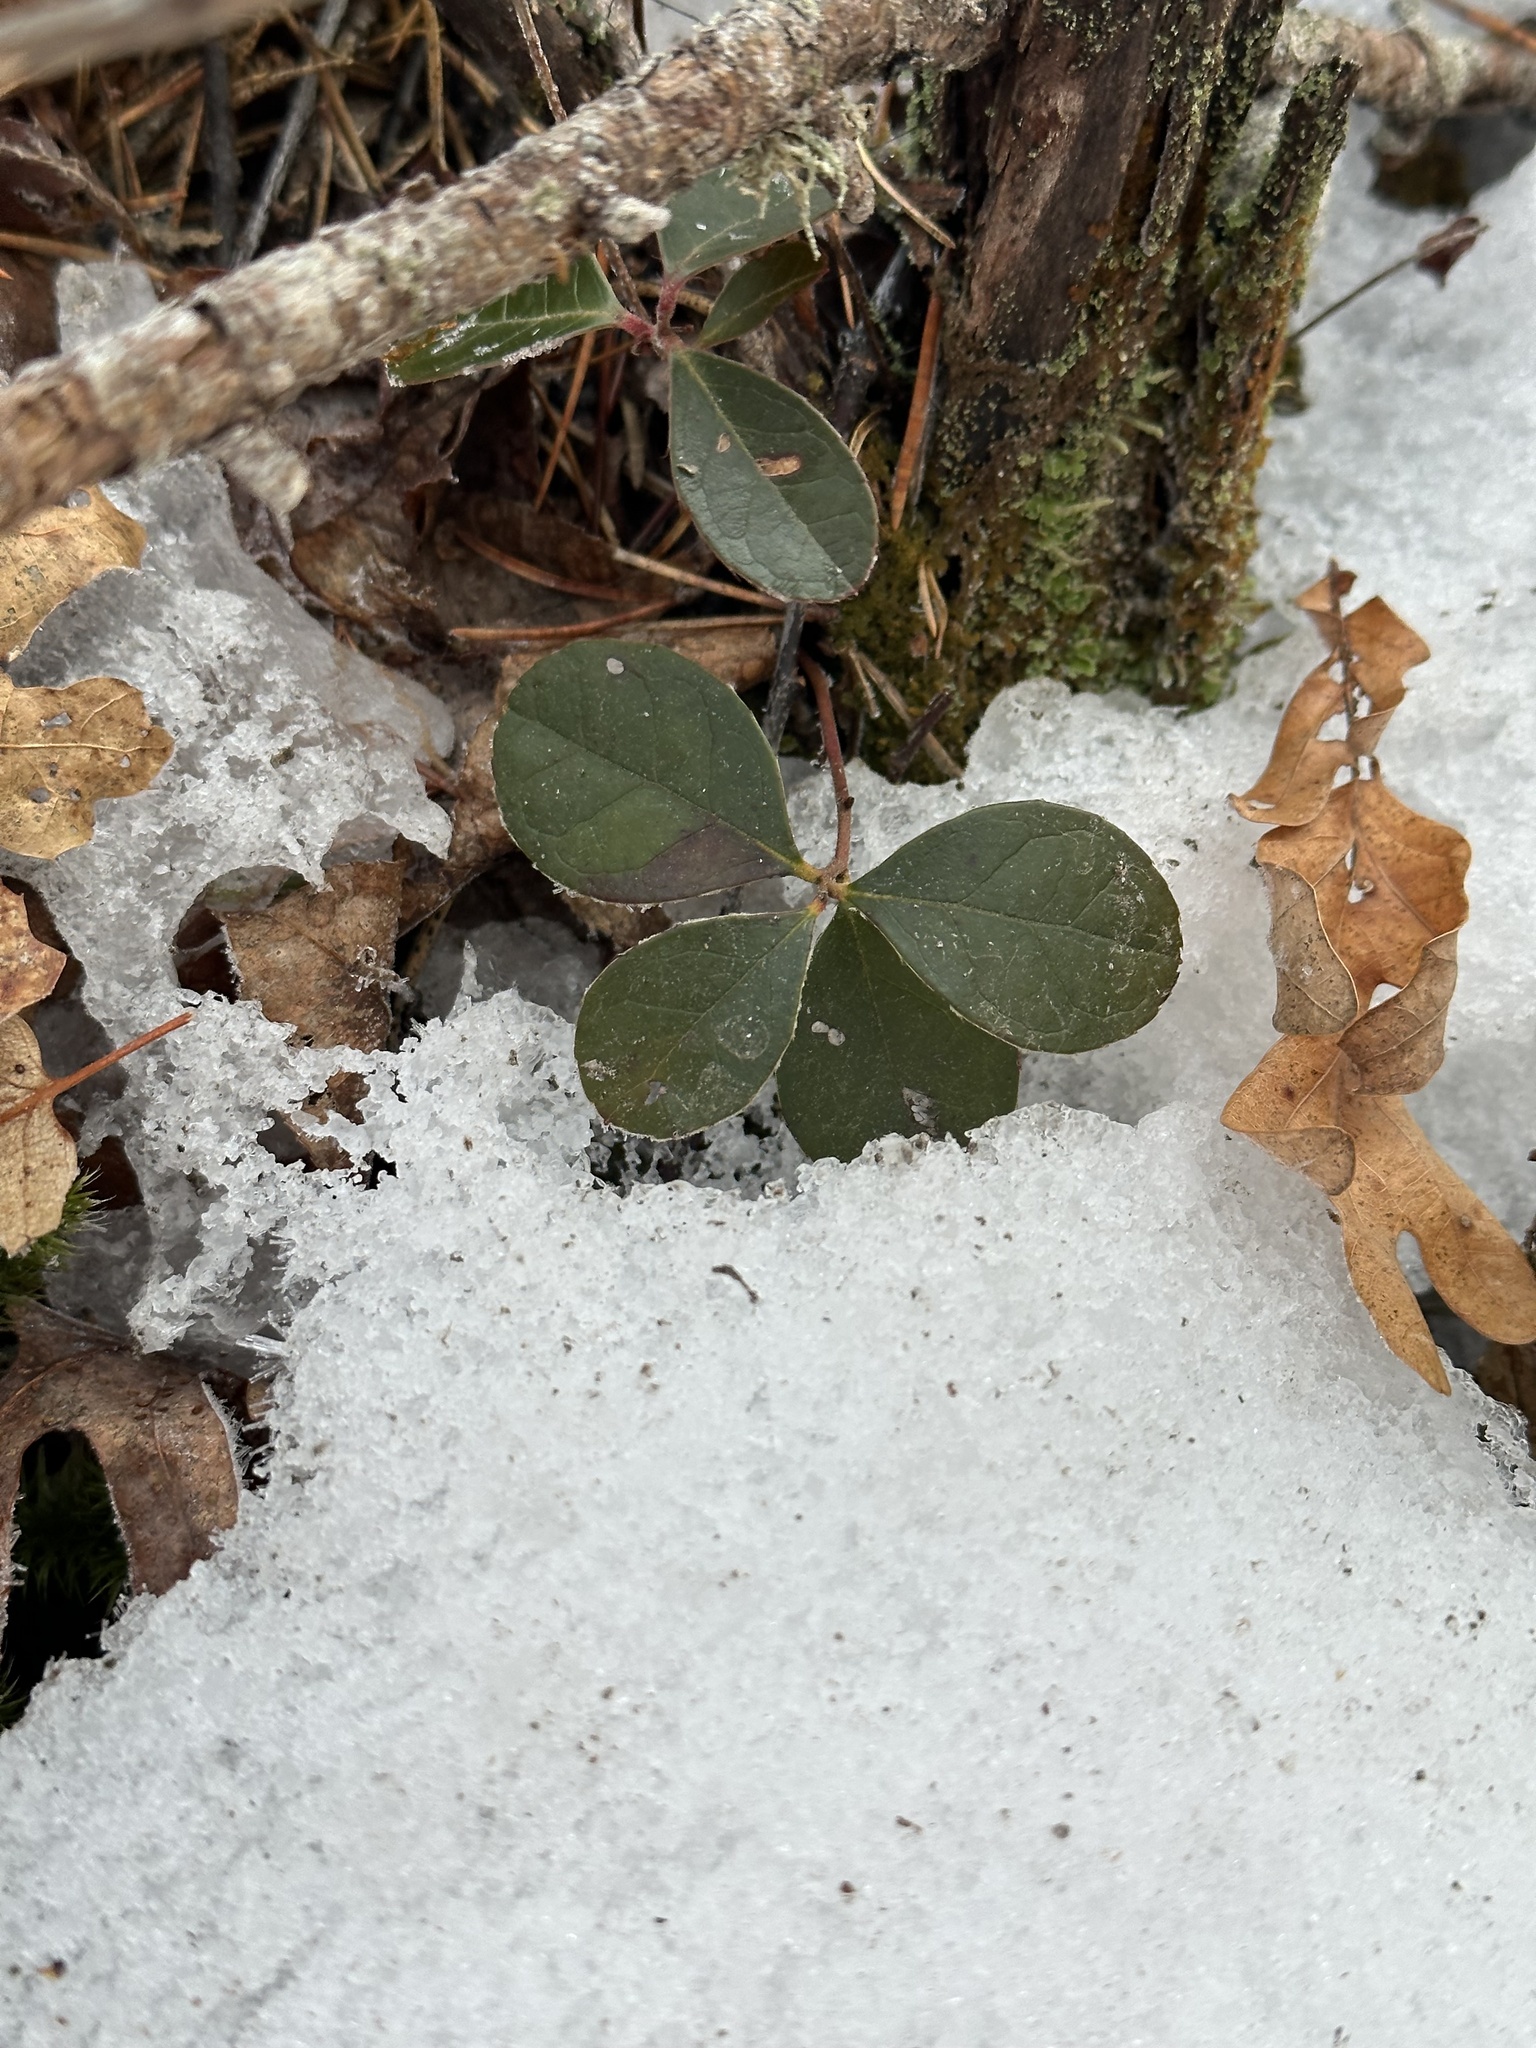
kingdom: Plantae
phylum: Tracheophyta
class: Magnoliopsida
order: Ericales
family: Ericaceae
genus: Gaultheria
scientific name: Gaultheria procumbens
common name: Checkerberry
